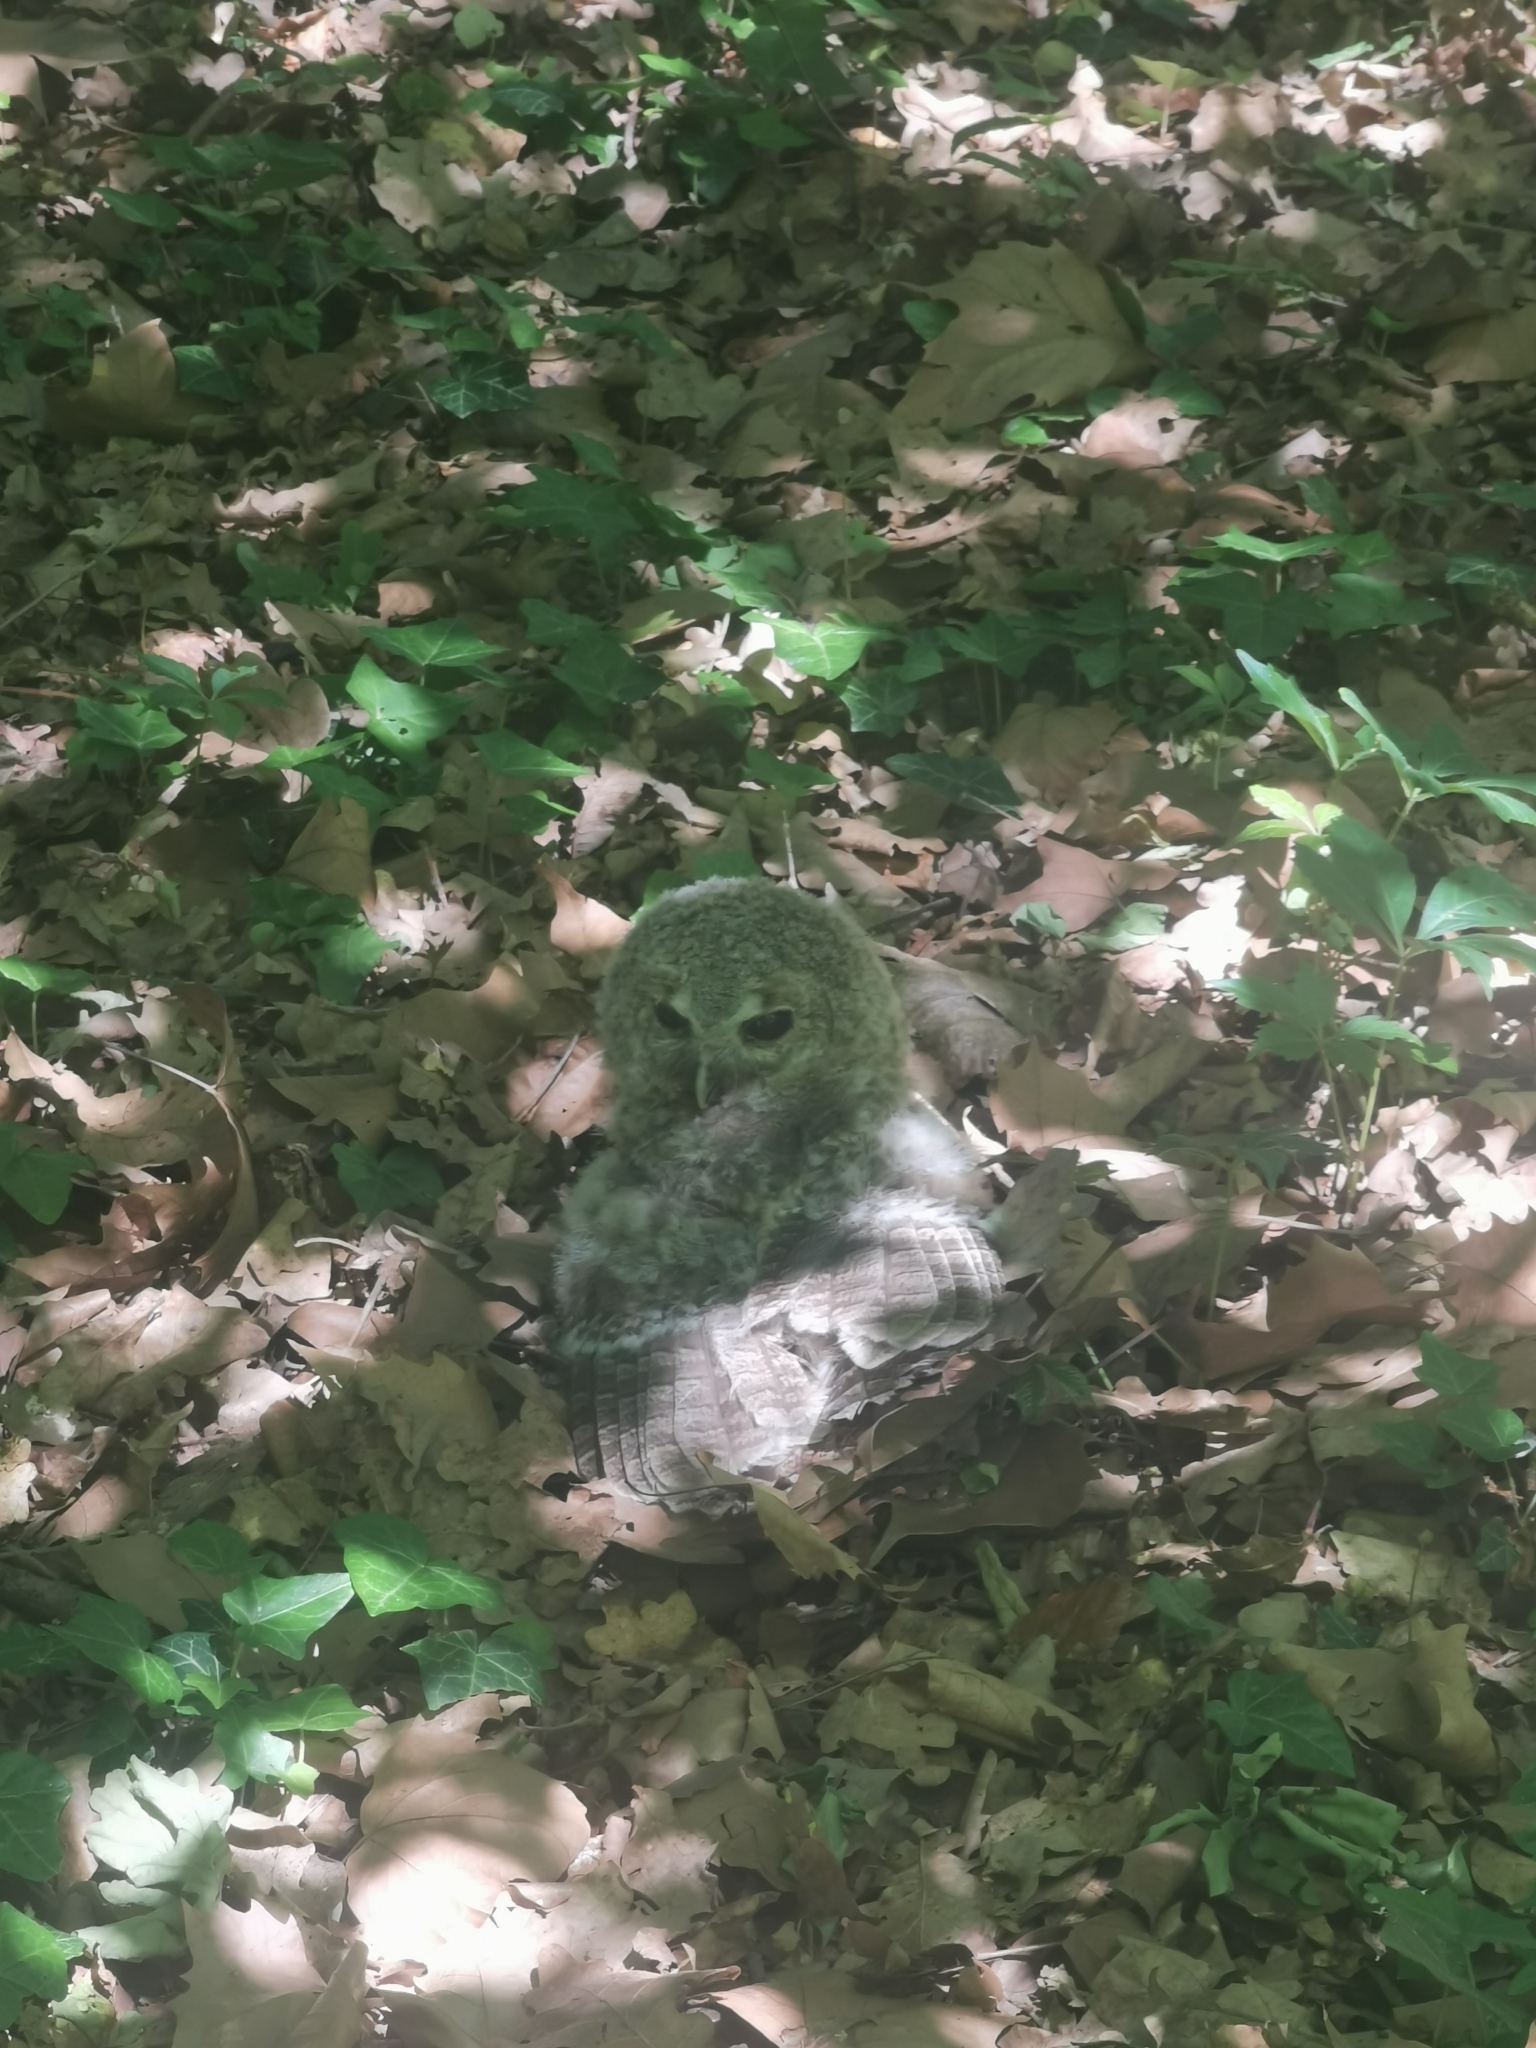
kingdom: Animalia
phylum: Chordata
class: Aves
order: Strigiformes
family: Strigidae
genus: Strix
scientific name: Strix aluco
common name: Tawny owl
